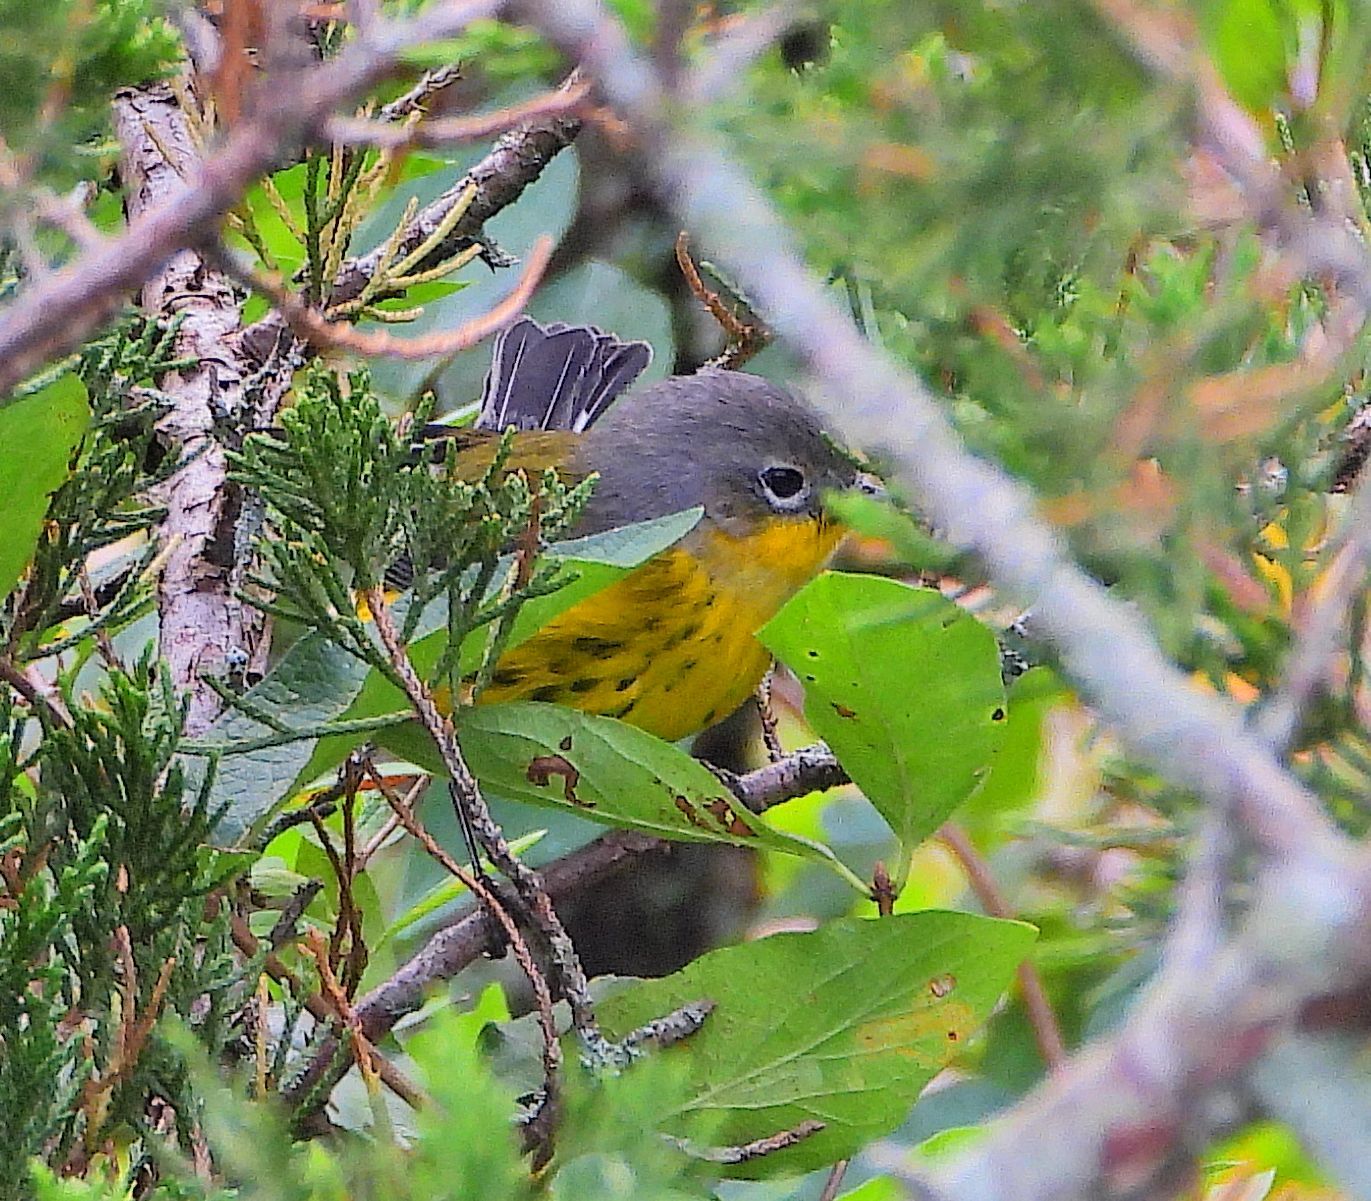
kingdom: Animalia
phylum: Chordata
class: Aves
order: Passeriformes
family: Parulidae
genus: Setophaga
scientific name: Setophaga magnolia
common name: Magnolia warbler
